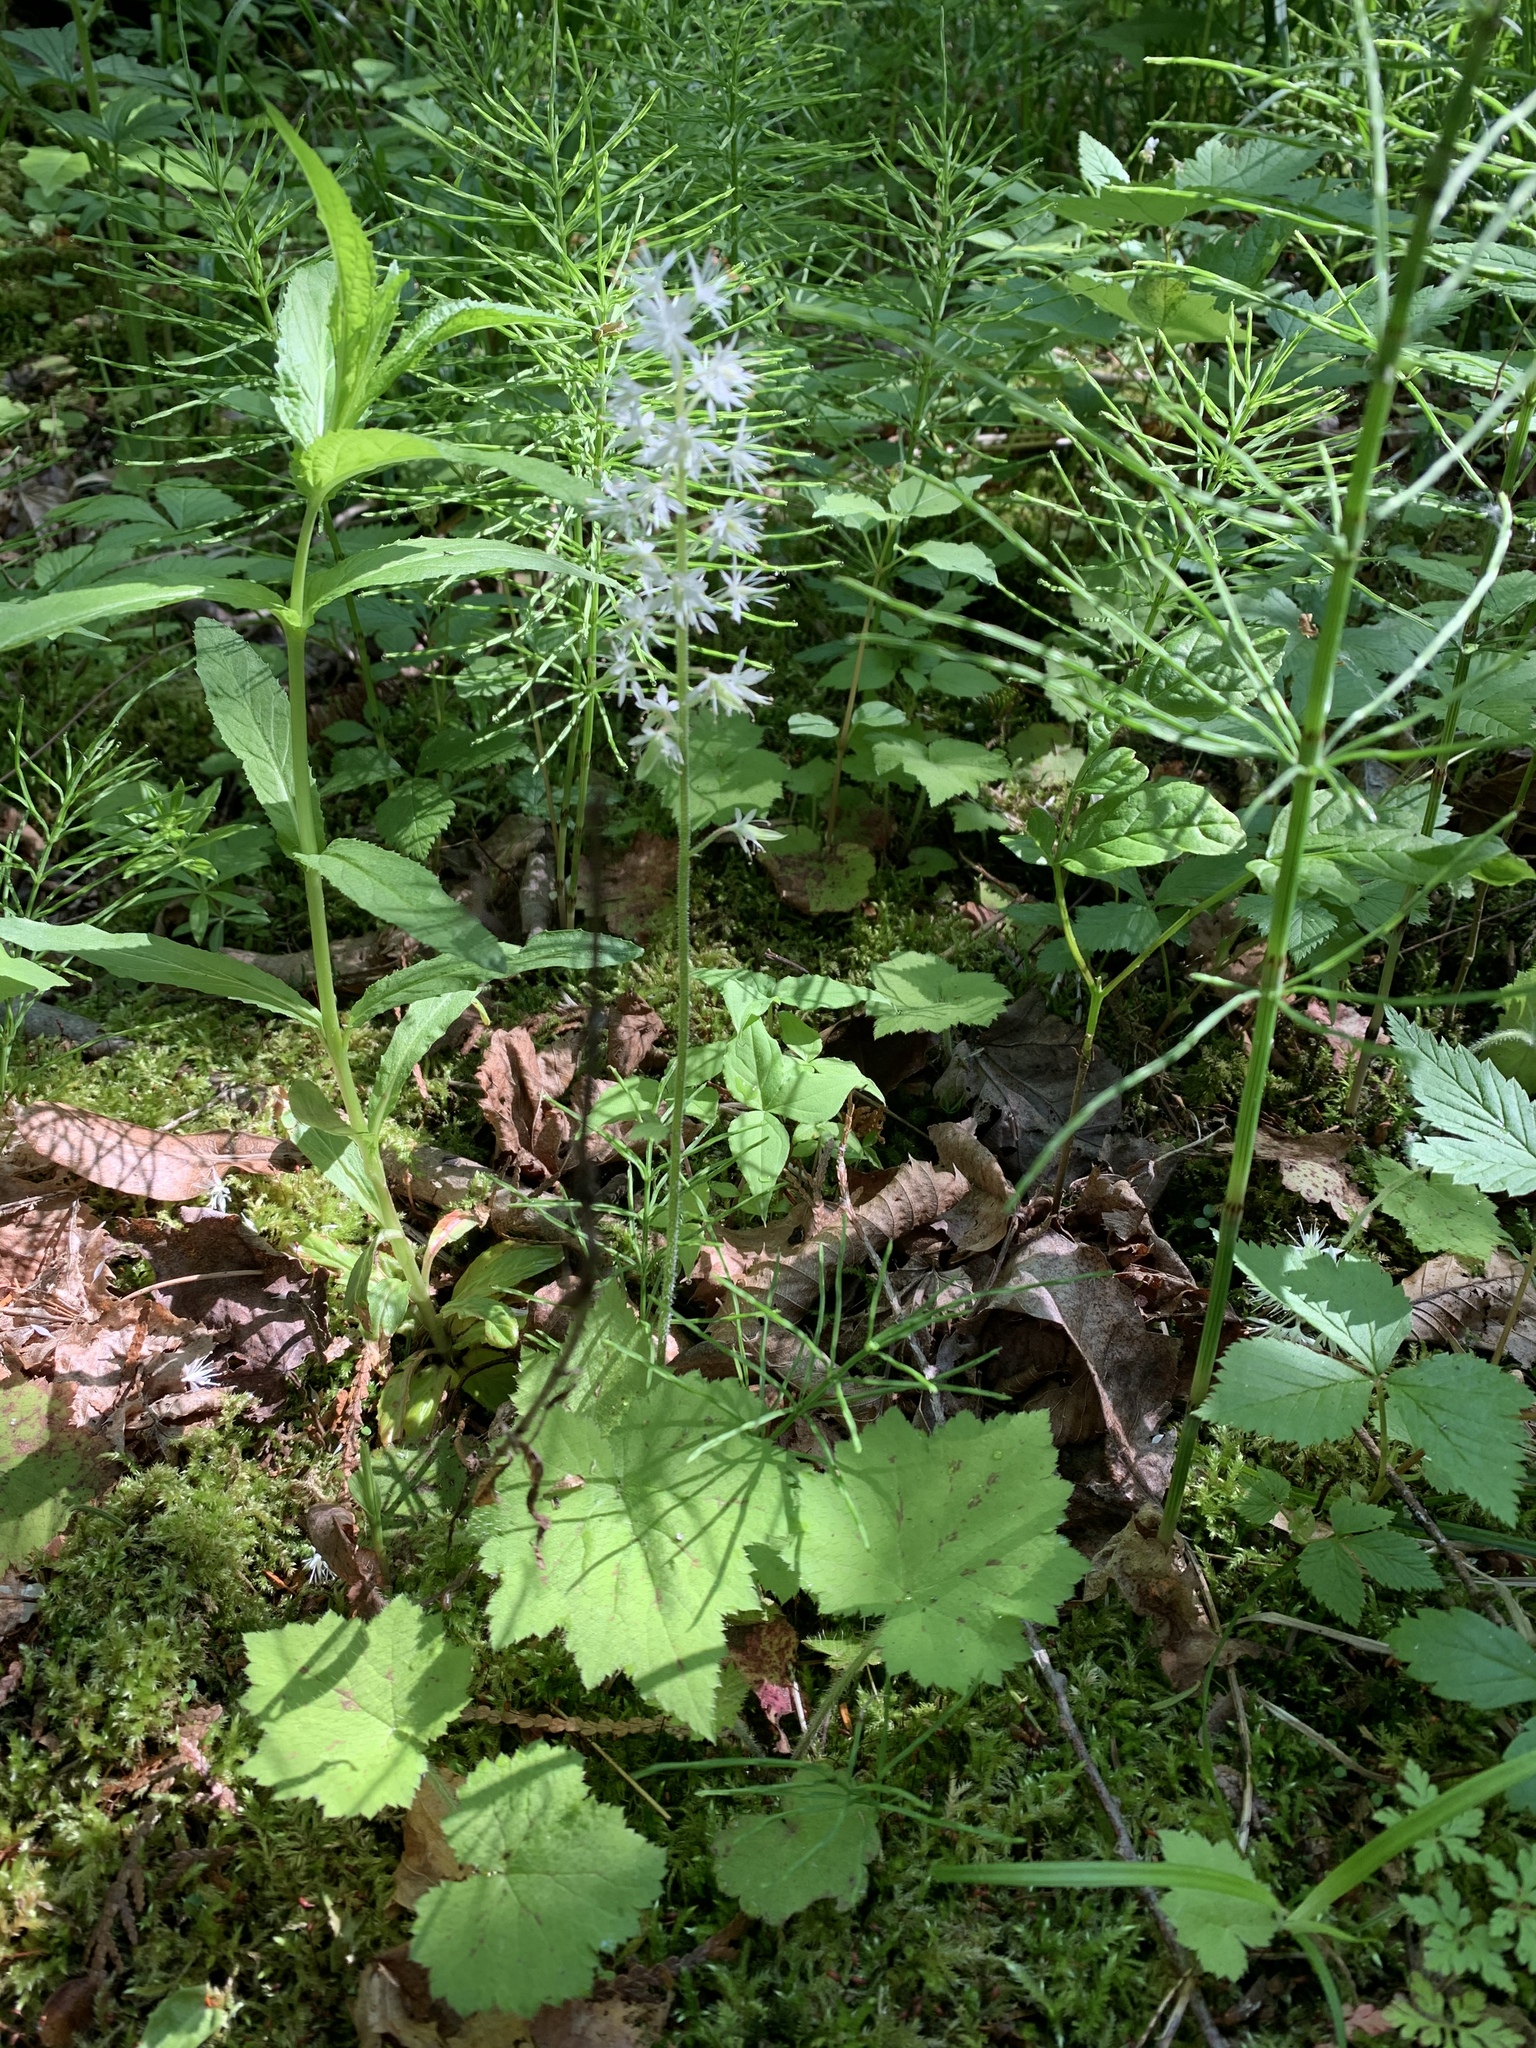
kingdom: Plantae
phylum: Tracheophyta
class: Magnoliopsida
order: Saxifragales
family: Saxifragaceae
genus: Tiarella
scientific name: Tiarella stolonifera
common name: Stoloniferous foamflower
